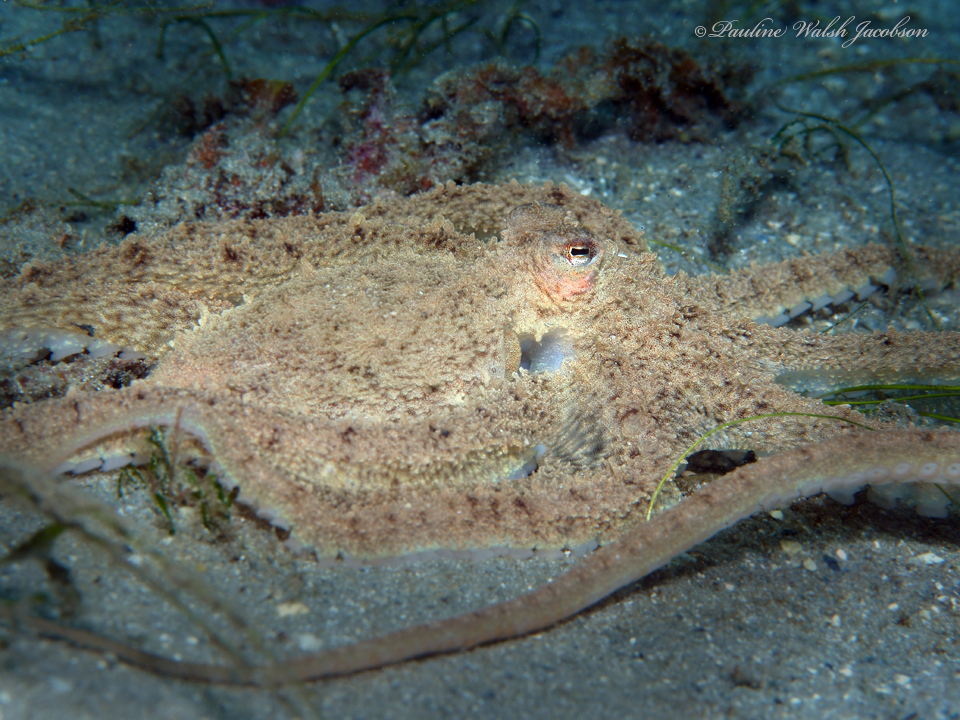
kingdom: Animalia
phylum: Mollusca
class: Cephalopoda
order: Octopoda
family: Octopodidae
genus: Macrotritopus
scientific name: Macrotritopus defilippi
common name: Lilliput longarm octopus
